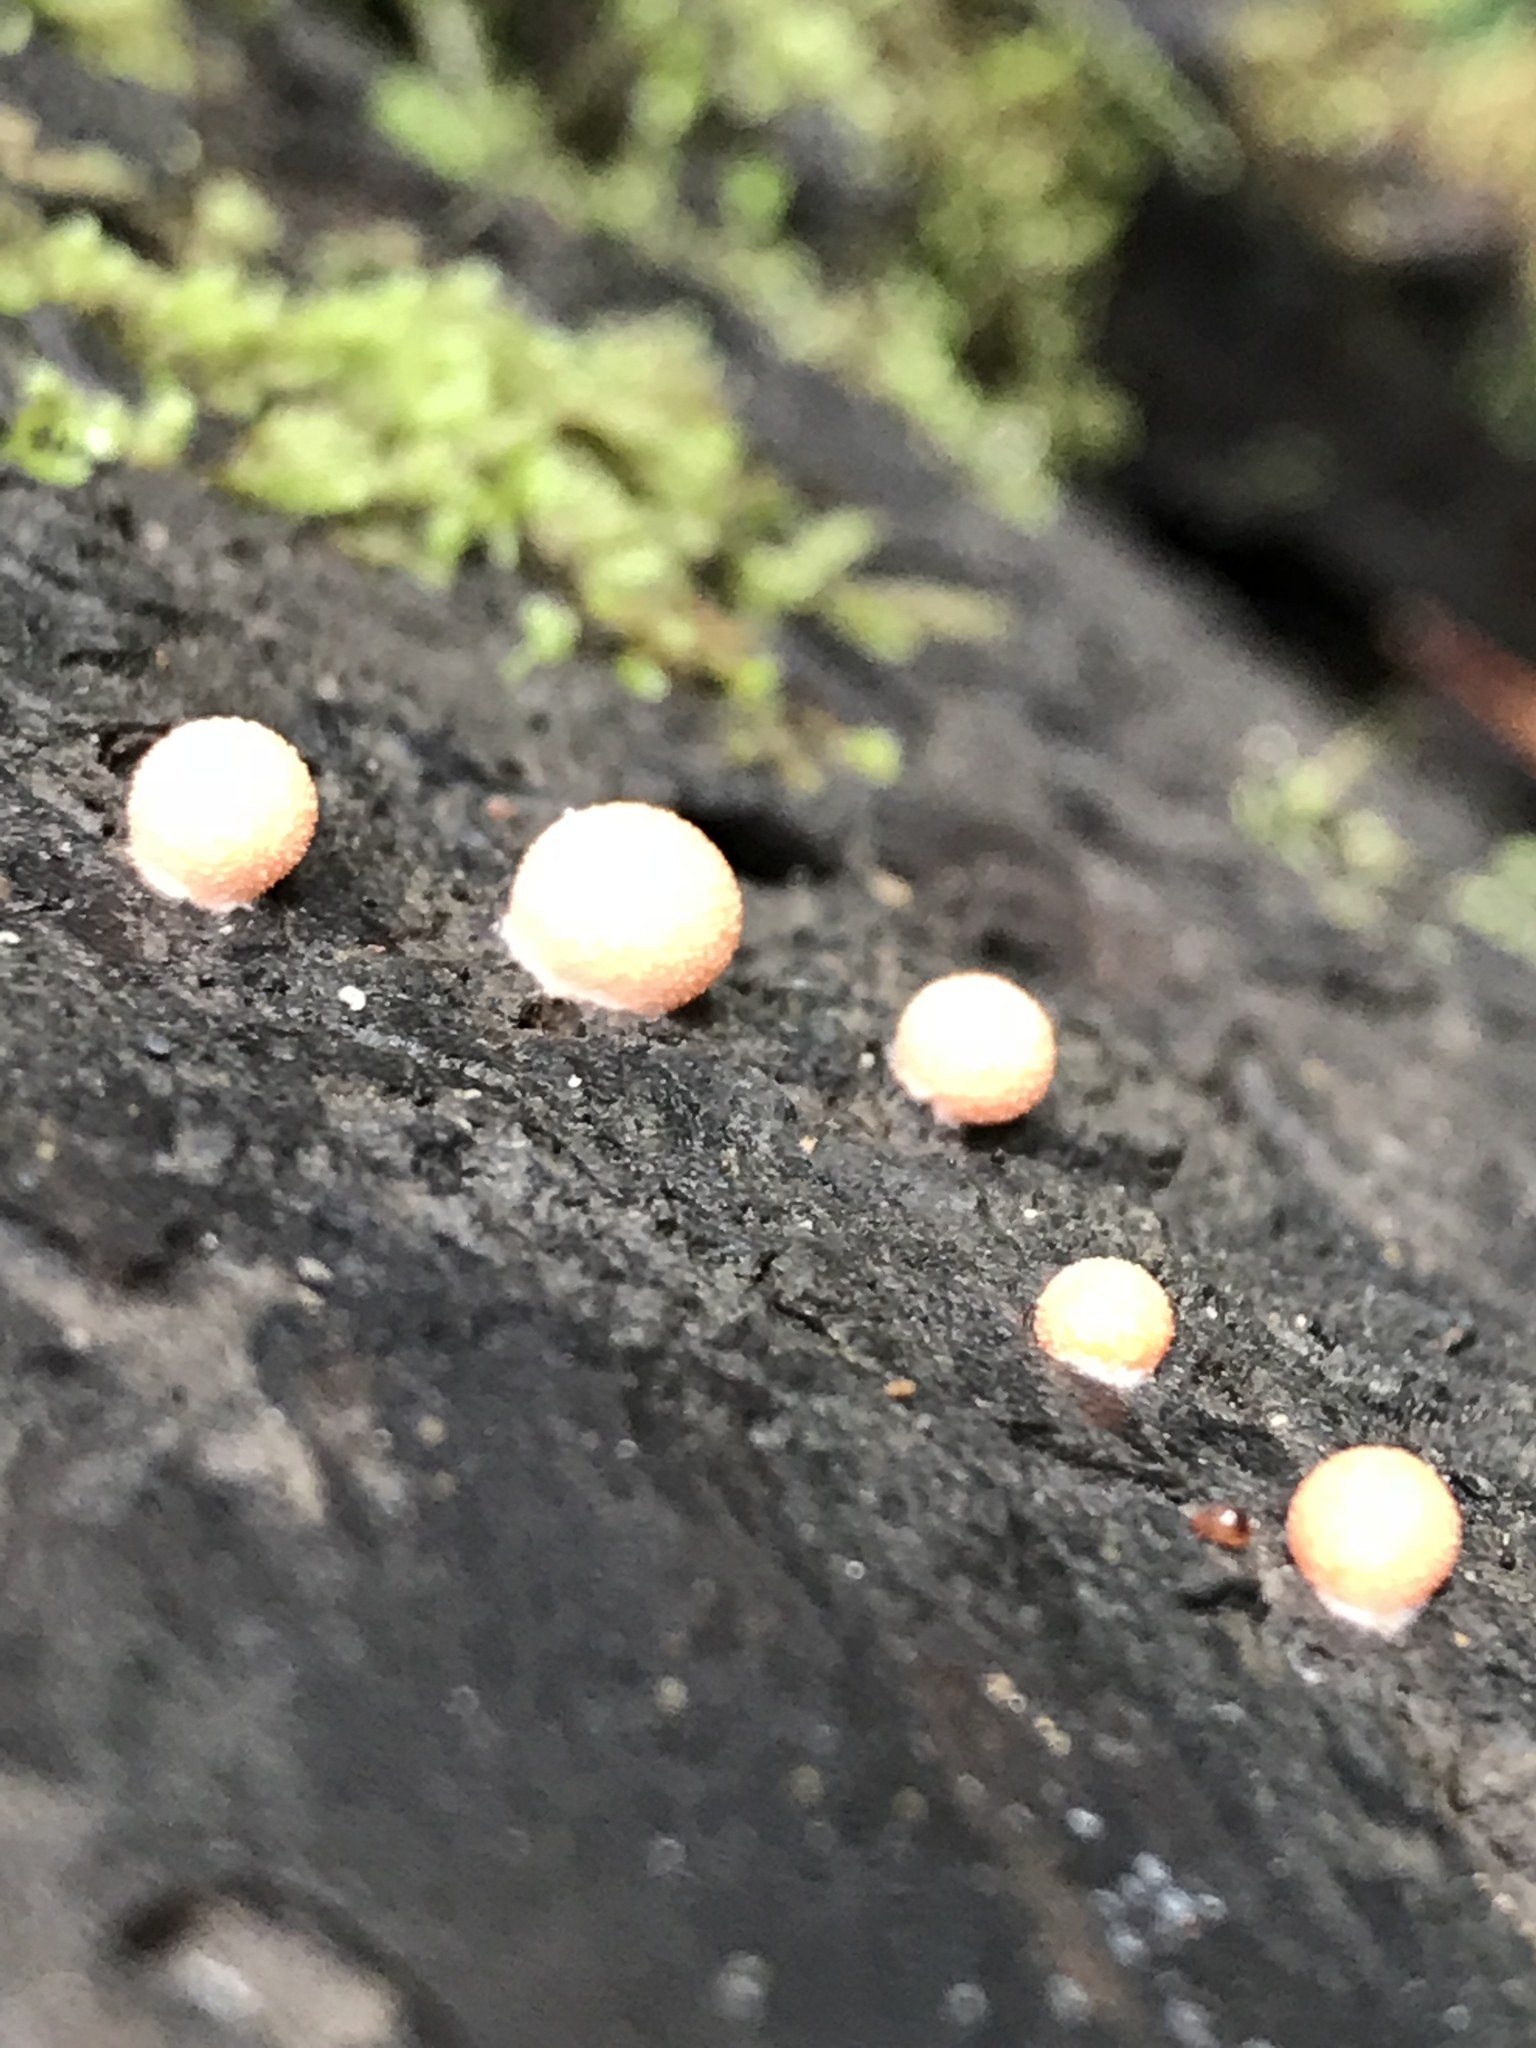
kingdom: Protozoa
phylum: Mycetozoa
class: Myxomycetes
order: Cribrariales
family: Tubiferaceae
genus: Lycogala
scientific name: Lycogala epidendrum
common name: Wolf's milk
